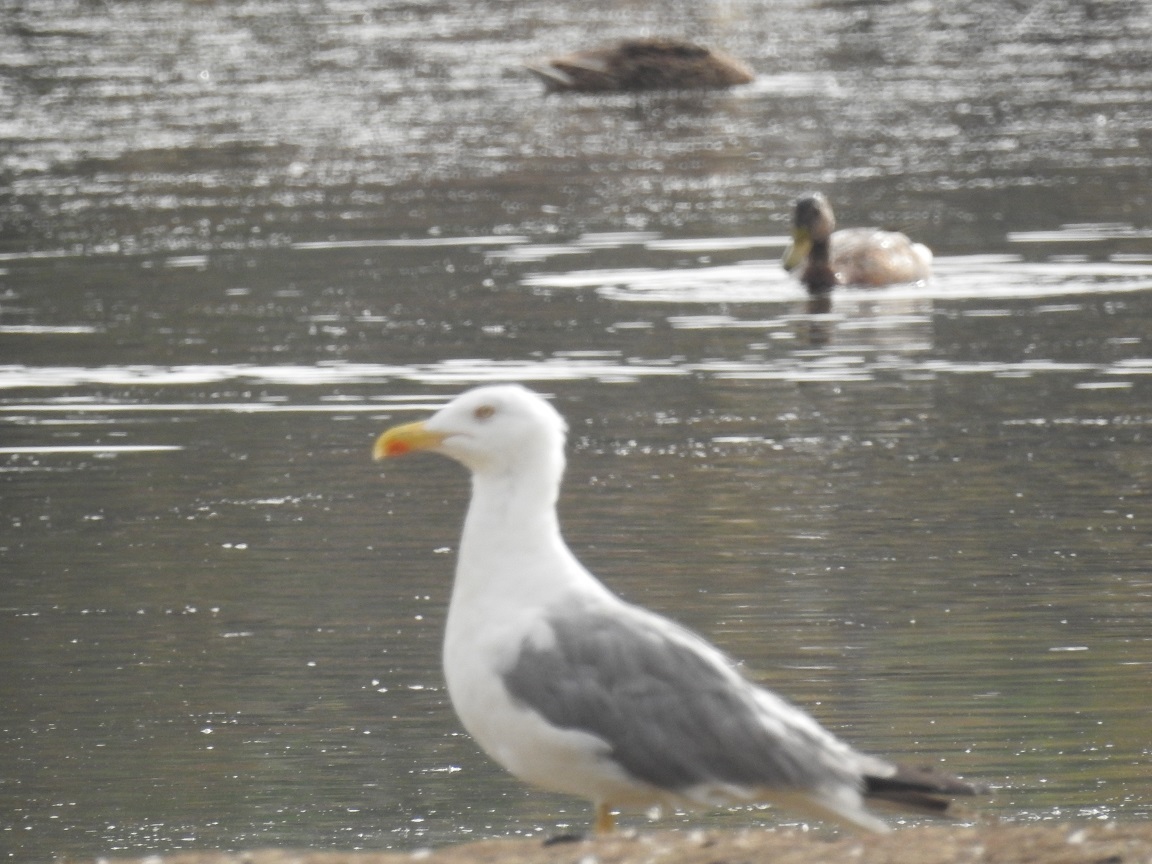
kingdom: Animalia
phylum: Chordata
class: Aves
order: Charadriiformes
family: Laridae
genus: Larus
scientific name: Larus michahellis
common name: Yellow-legged gull
